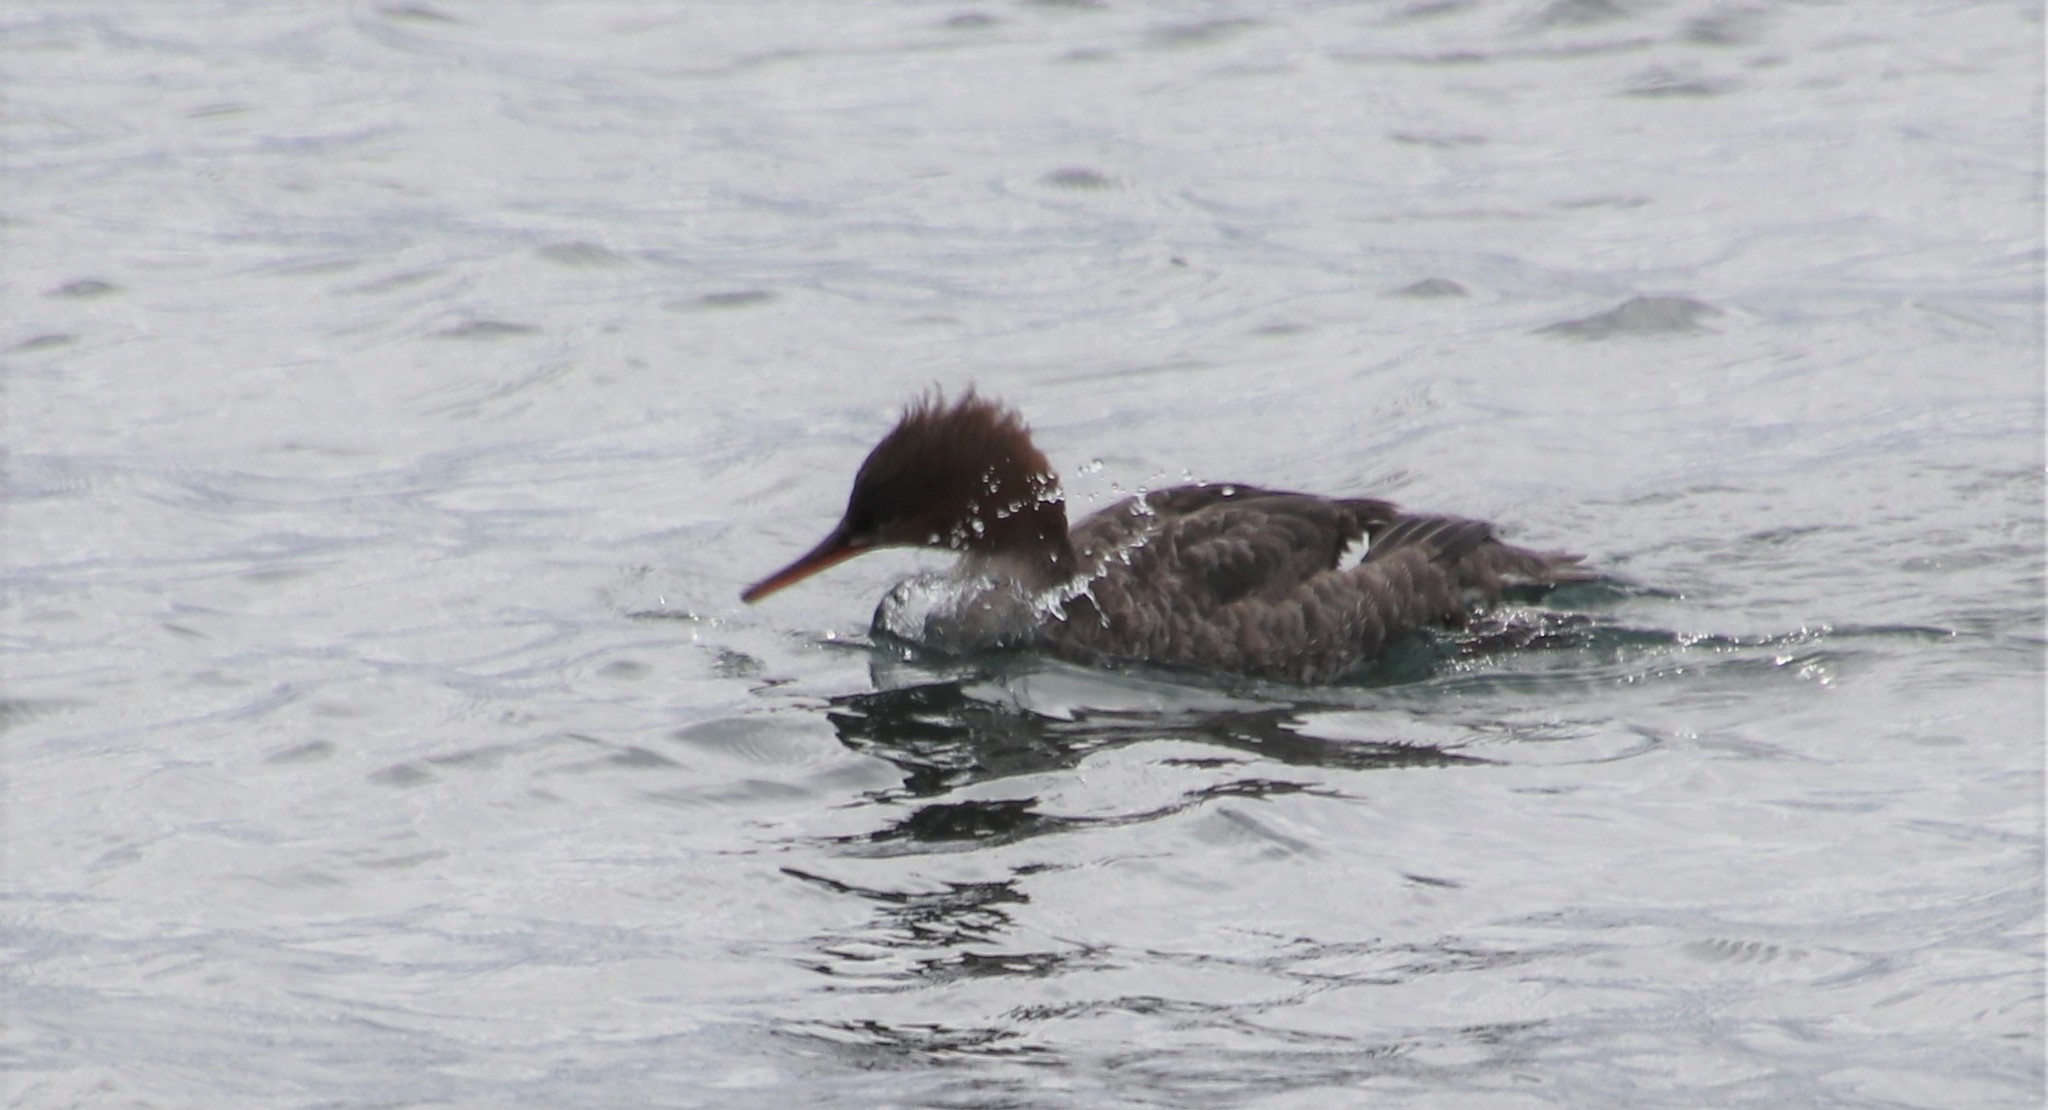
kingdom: Animalia
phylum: Chordata
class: Aves
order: Anseriformes
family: Anatidae
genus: Mergus
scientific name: Mergus serrator
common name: Red-breasted merganser
